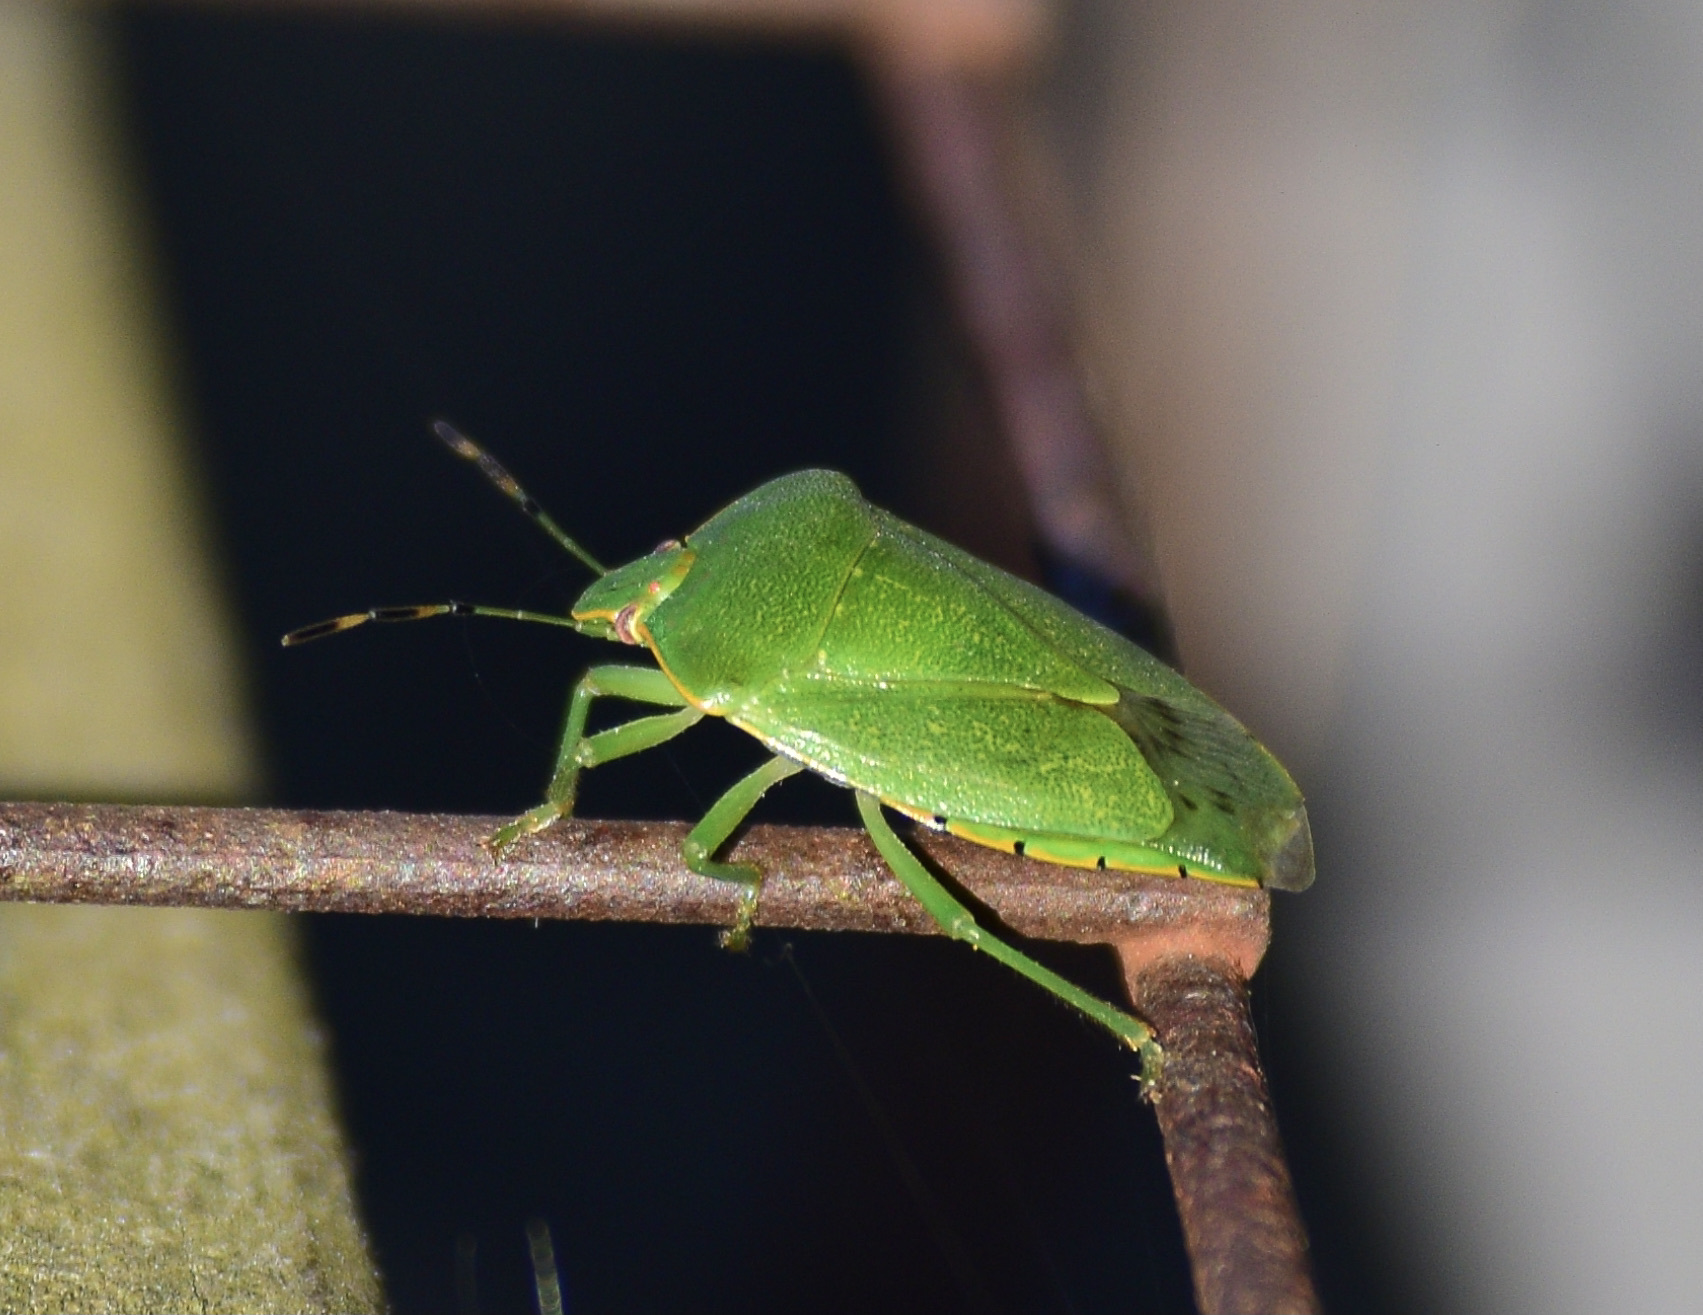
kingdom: Animalia
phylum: Arthropoda
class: Insecta
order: Hemiptera
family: Pentatomidae
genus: Chinavia
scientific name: Chinavia hilaris
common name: Green stink bug
